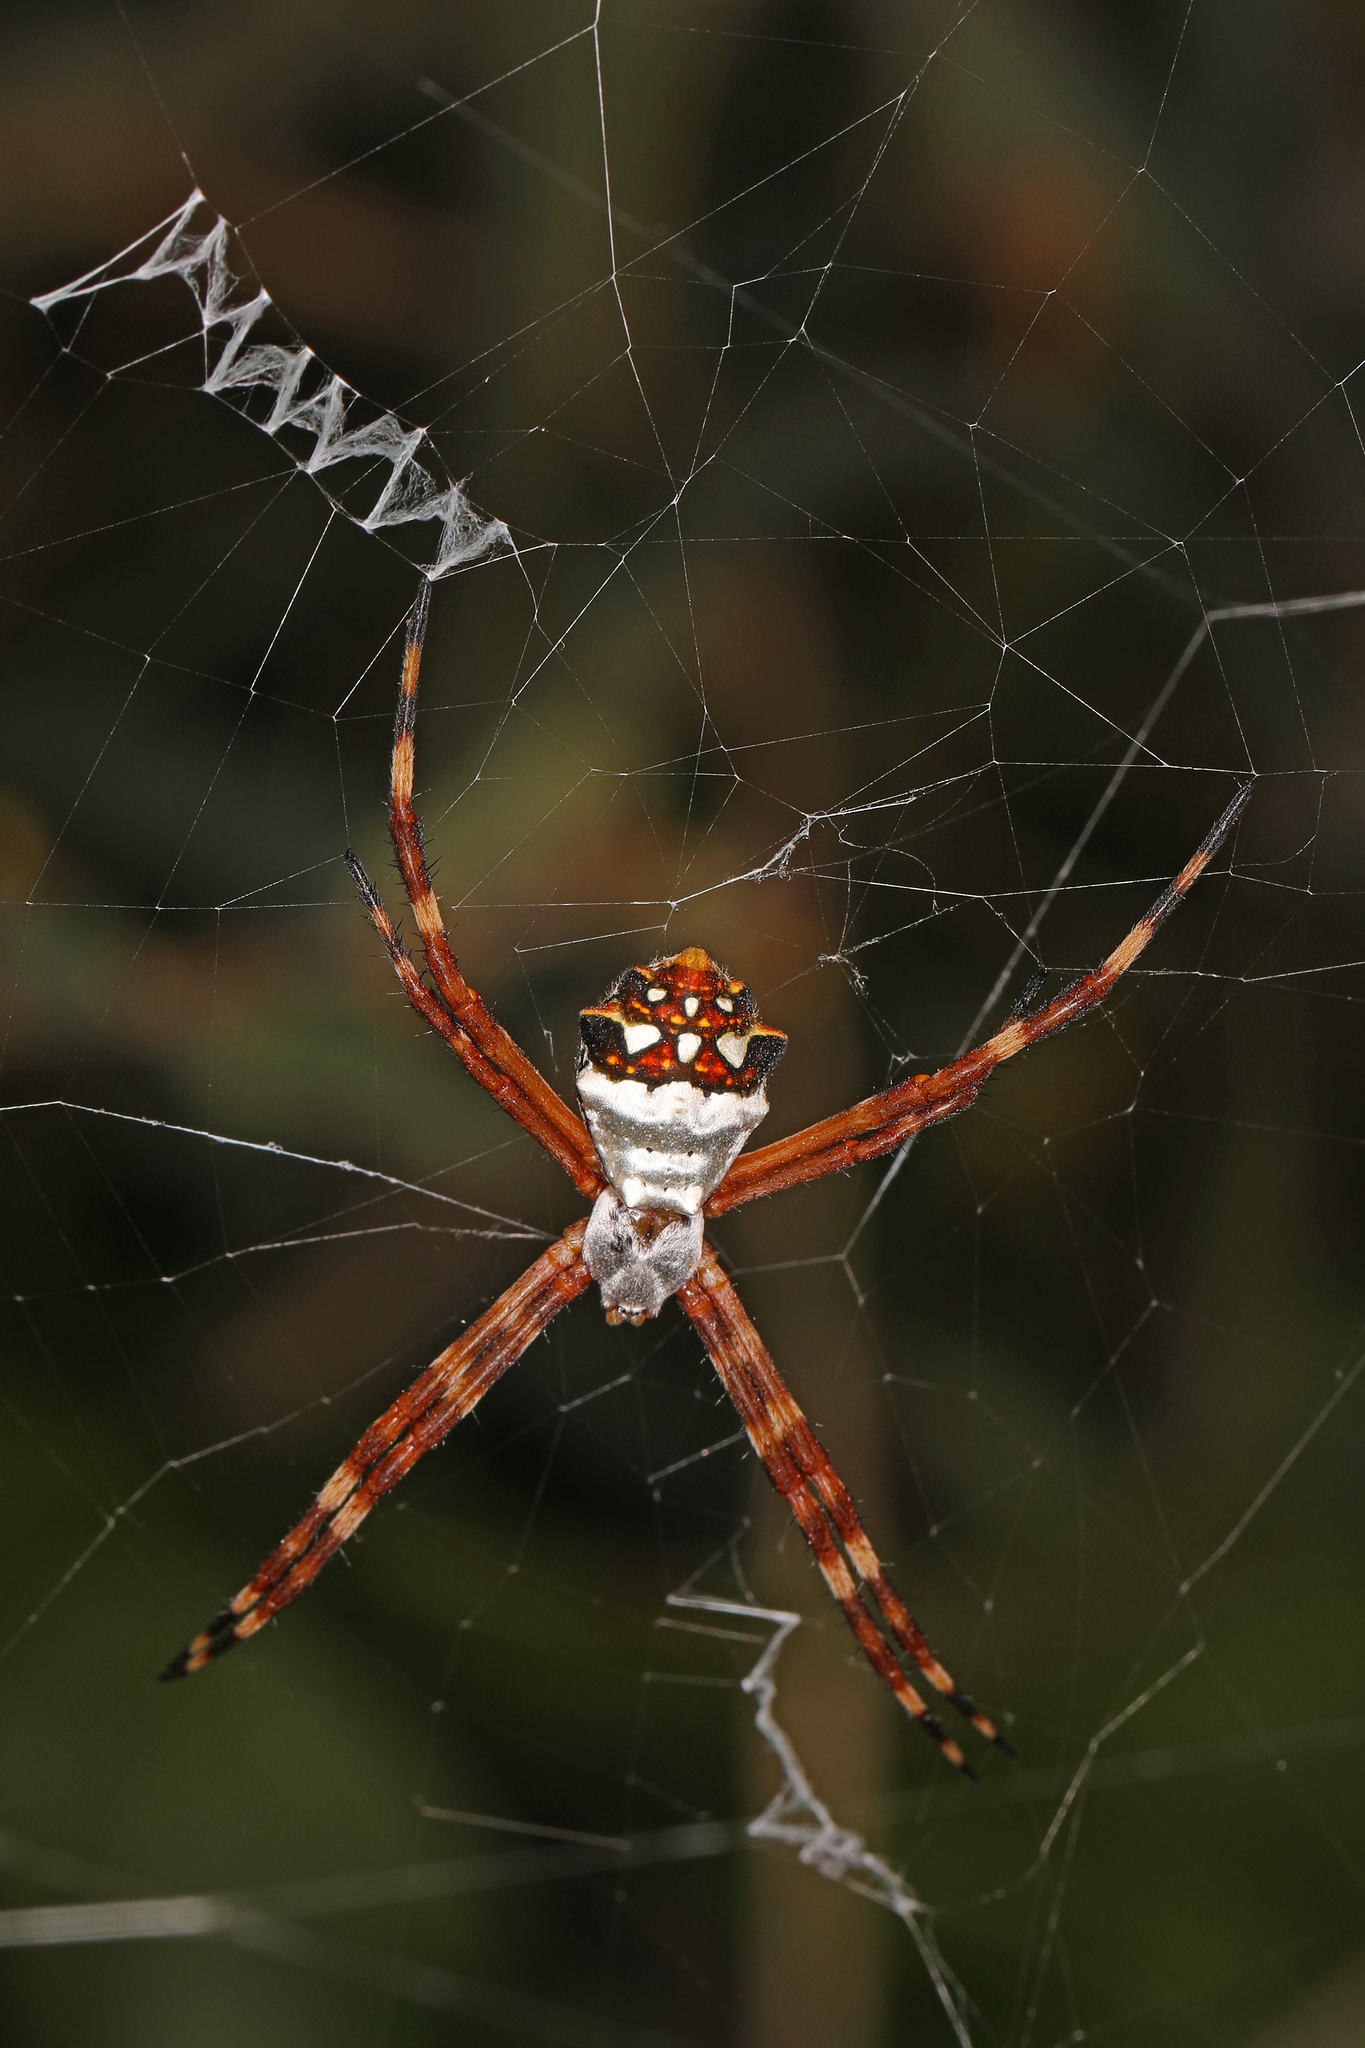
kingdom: Animalia
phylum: Arthropoda
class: Arachnida
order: Araneae
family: Araneidae
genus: Argiope
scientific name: Argiope argentata
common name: Orb weavers
